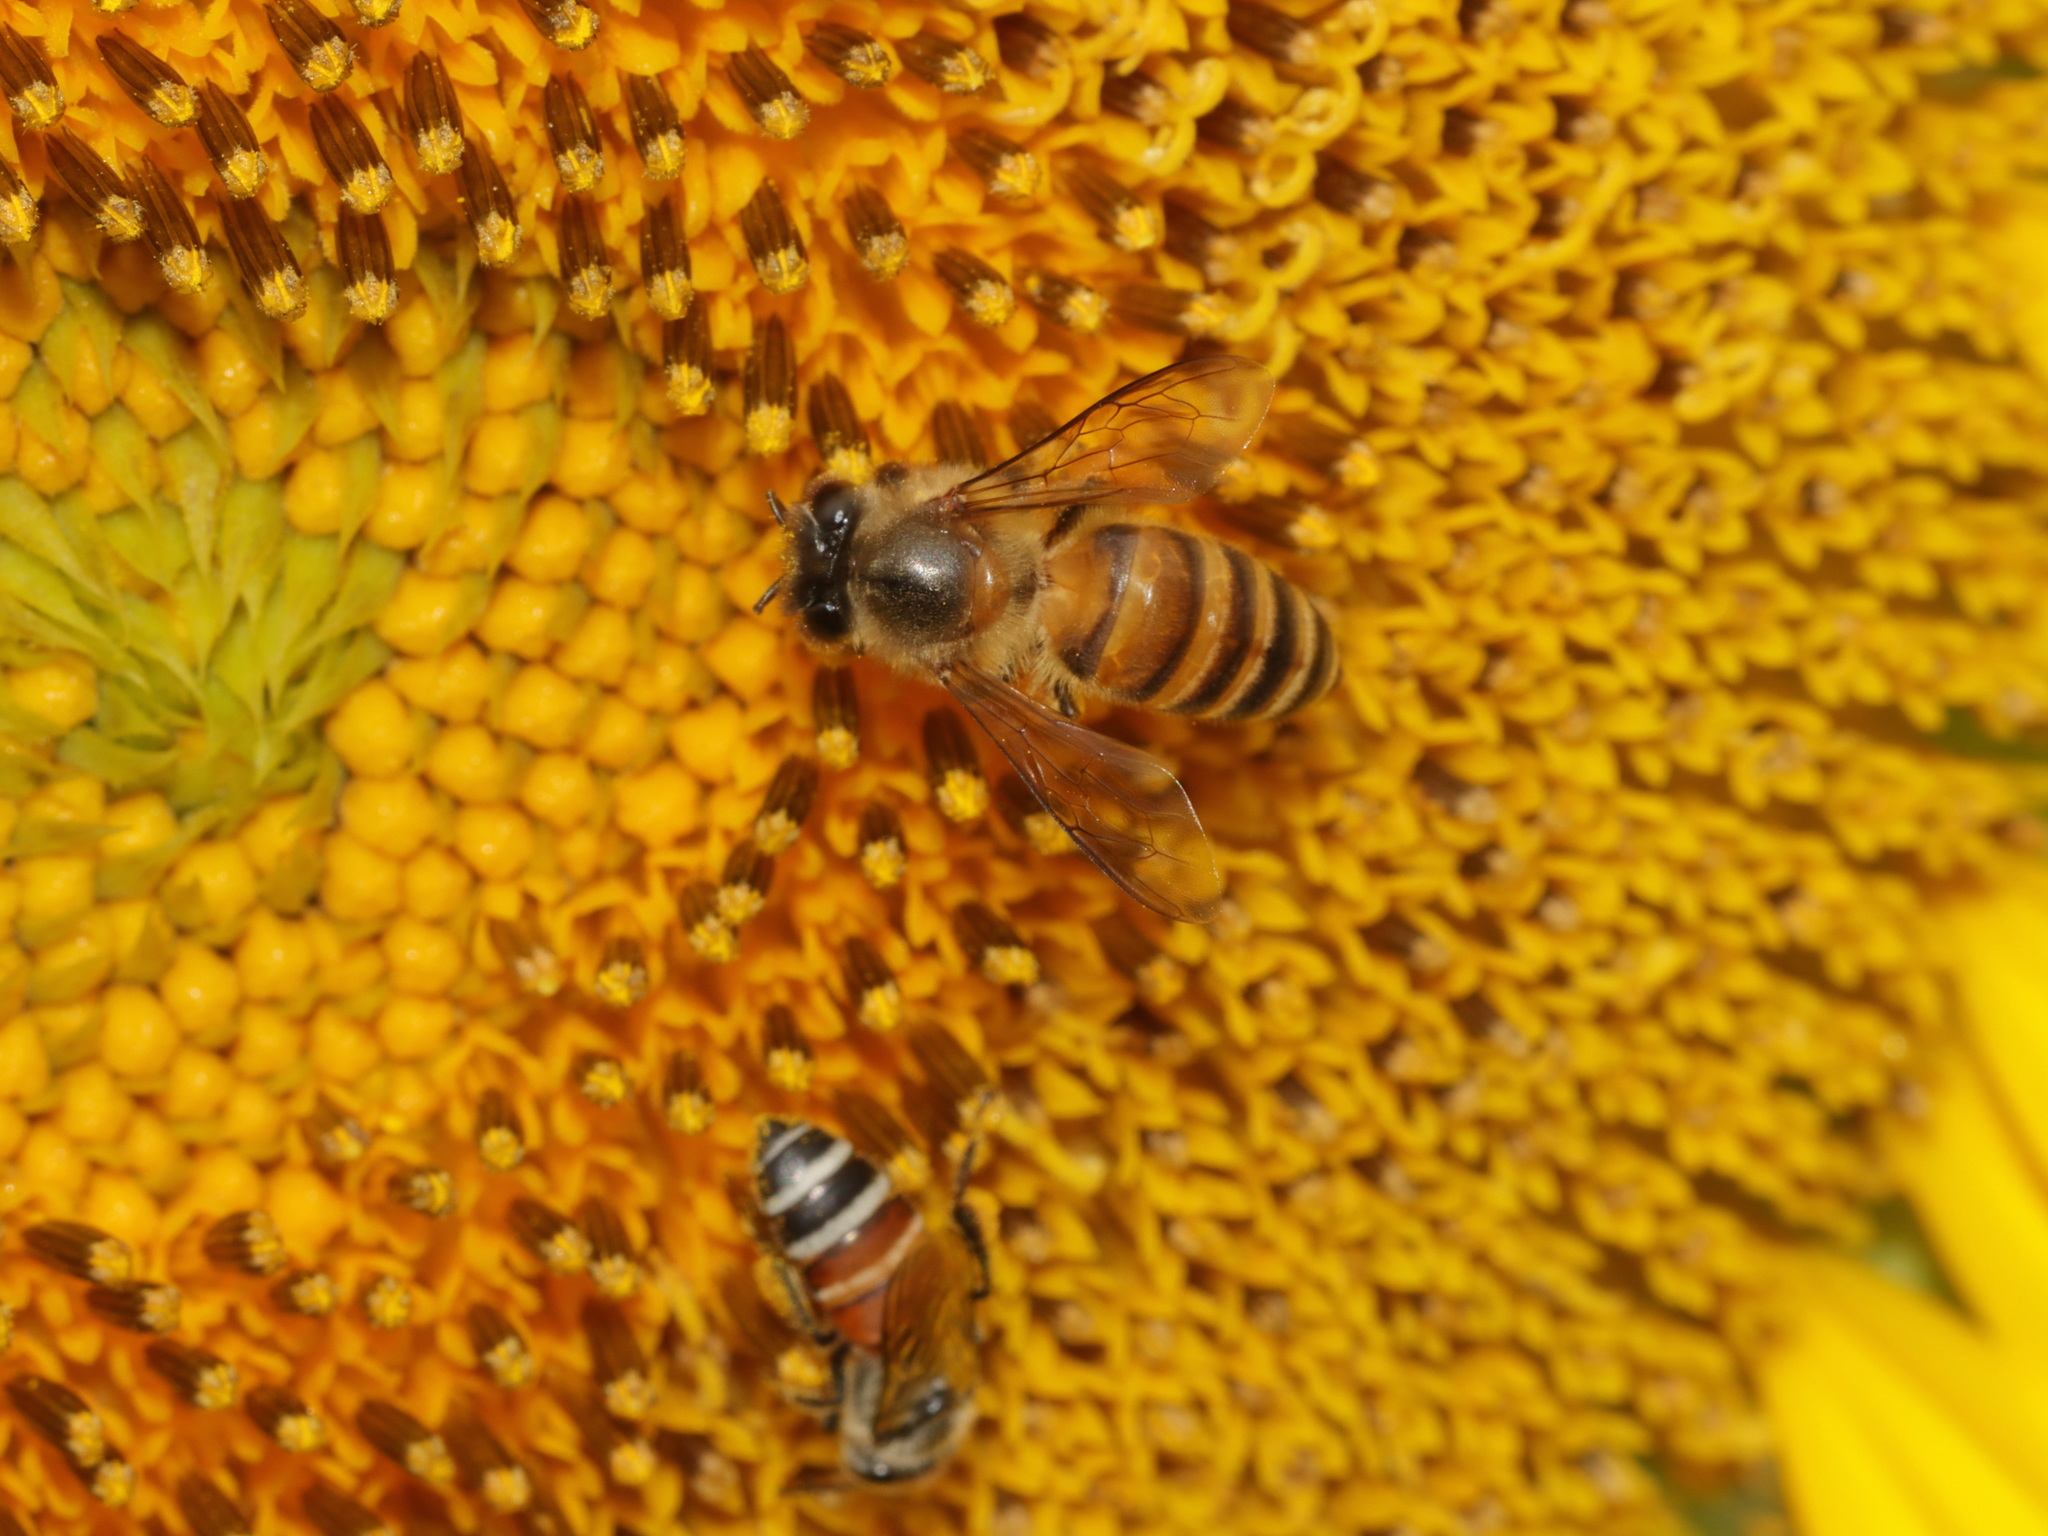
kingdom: Animalia
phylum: Arthropoda
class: Insecta
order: Hymenoptera
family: Apidae
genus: Apis
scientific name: Apis cerana
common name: Honey bee
